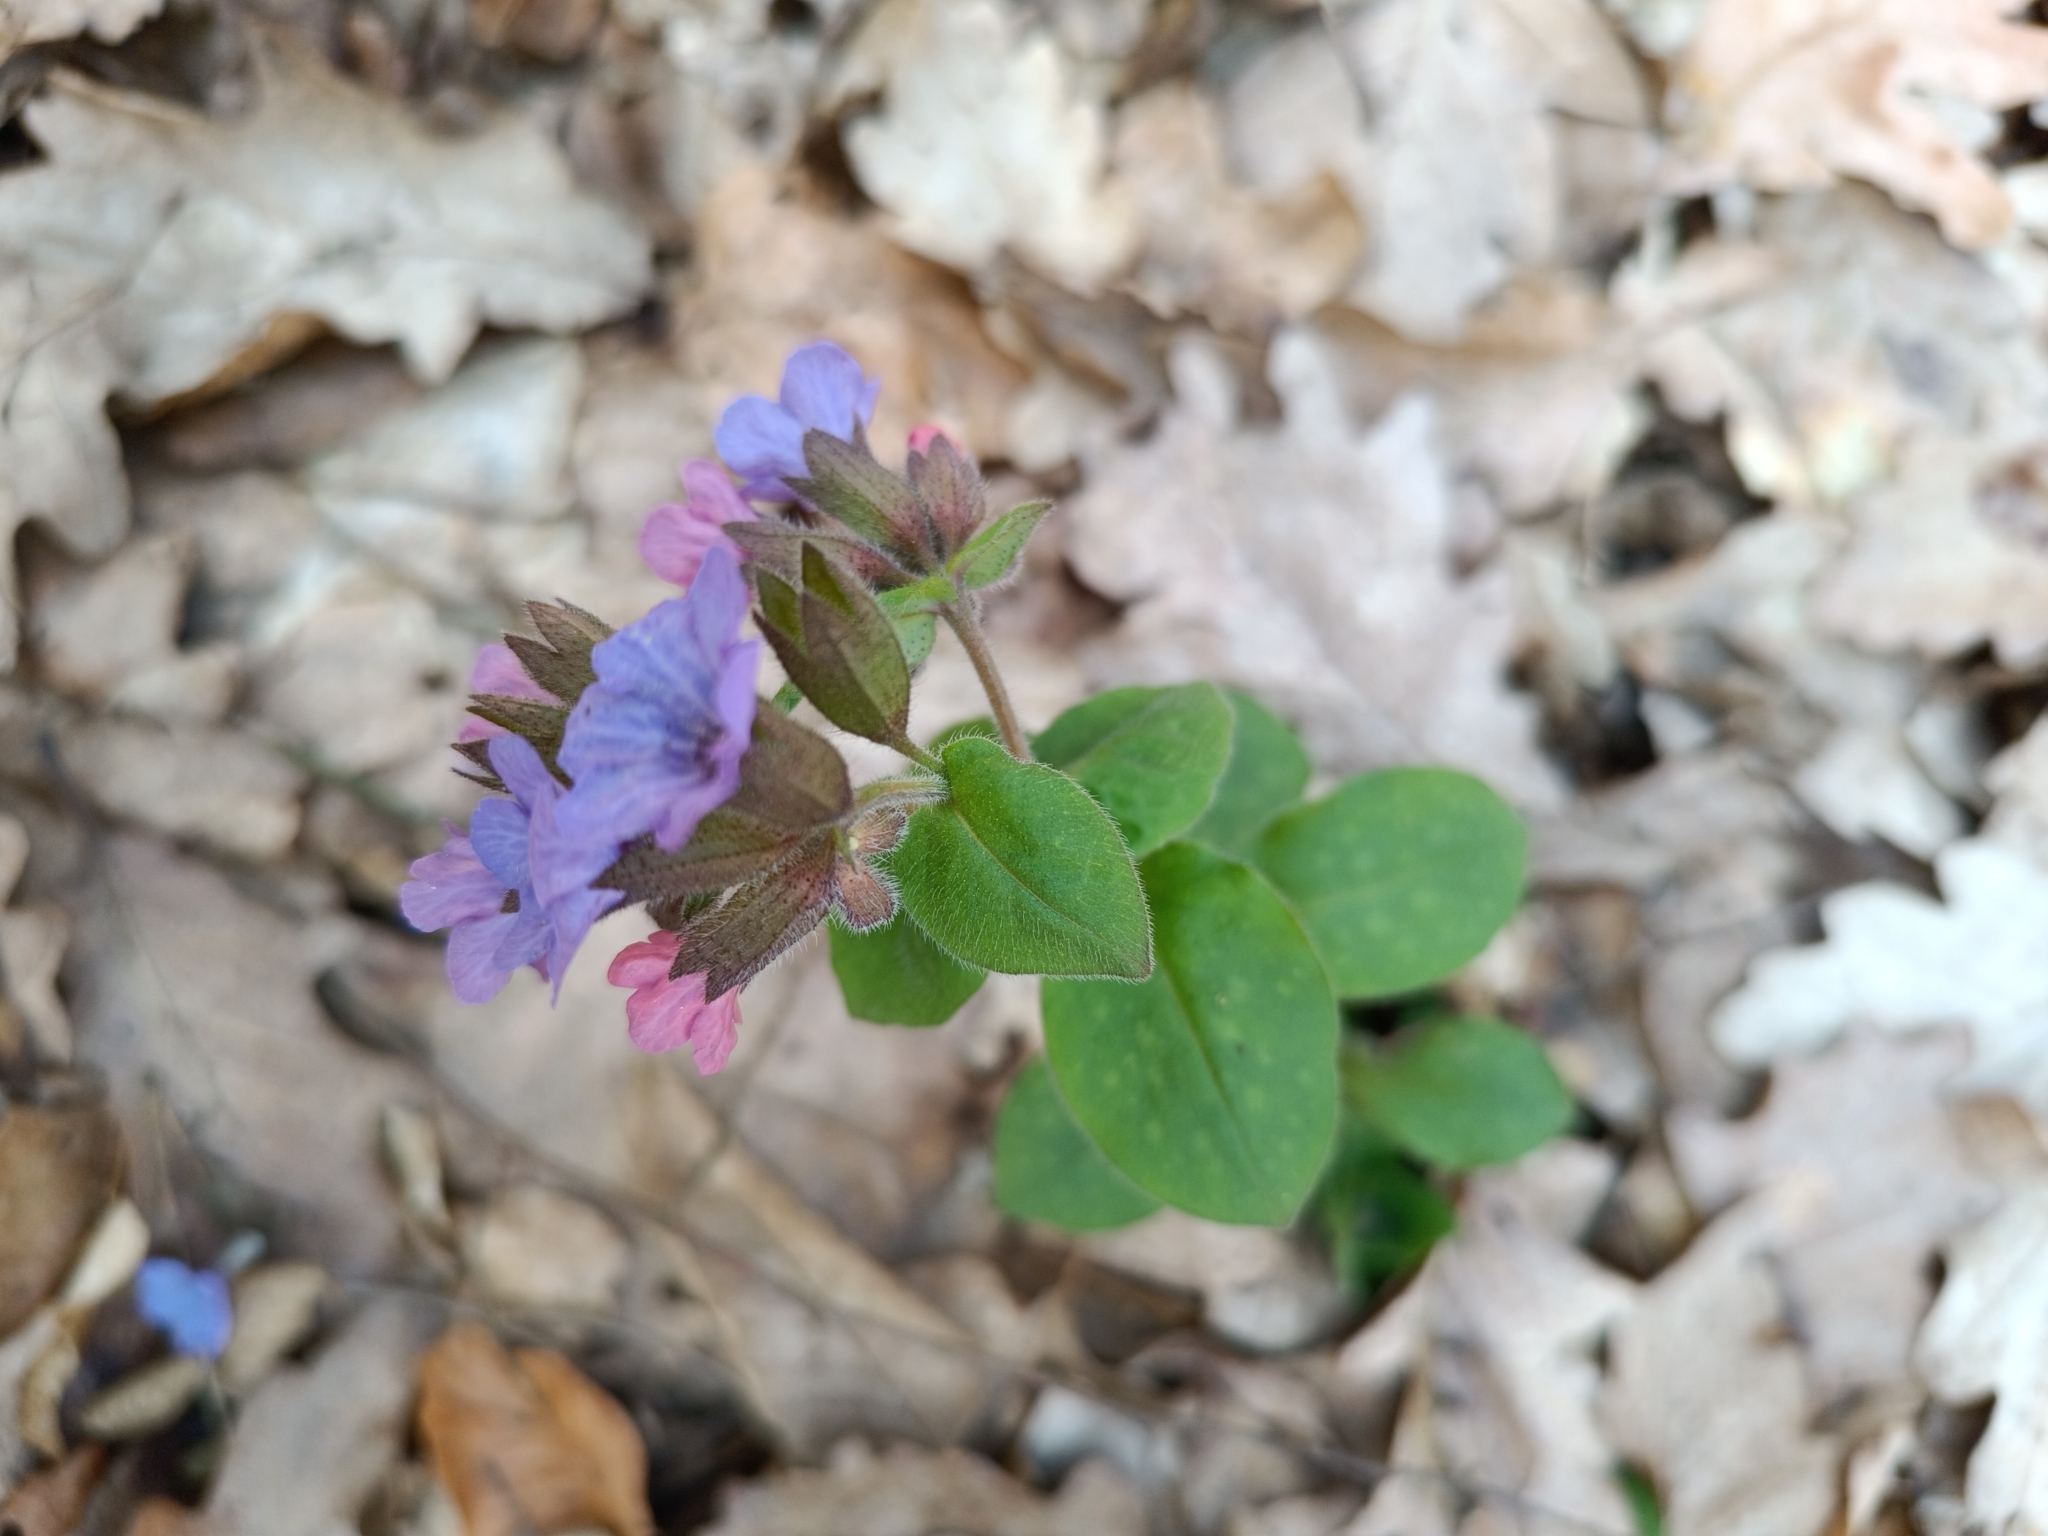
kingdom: Plantae
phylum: Tracheophyta
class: Magnoliopsida
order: Boraginales
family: Boraginaceae
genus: Pulmonaria
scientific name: Pulmonaria officinalis
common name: Lungwort
